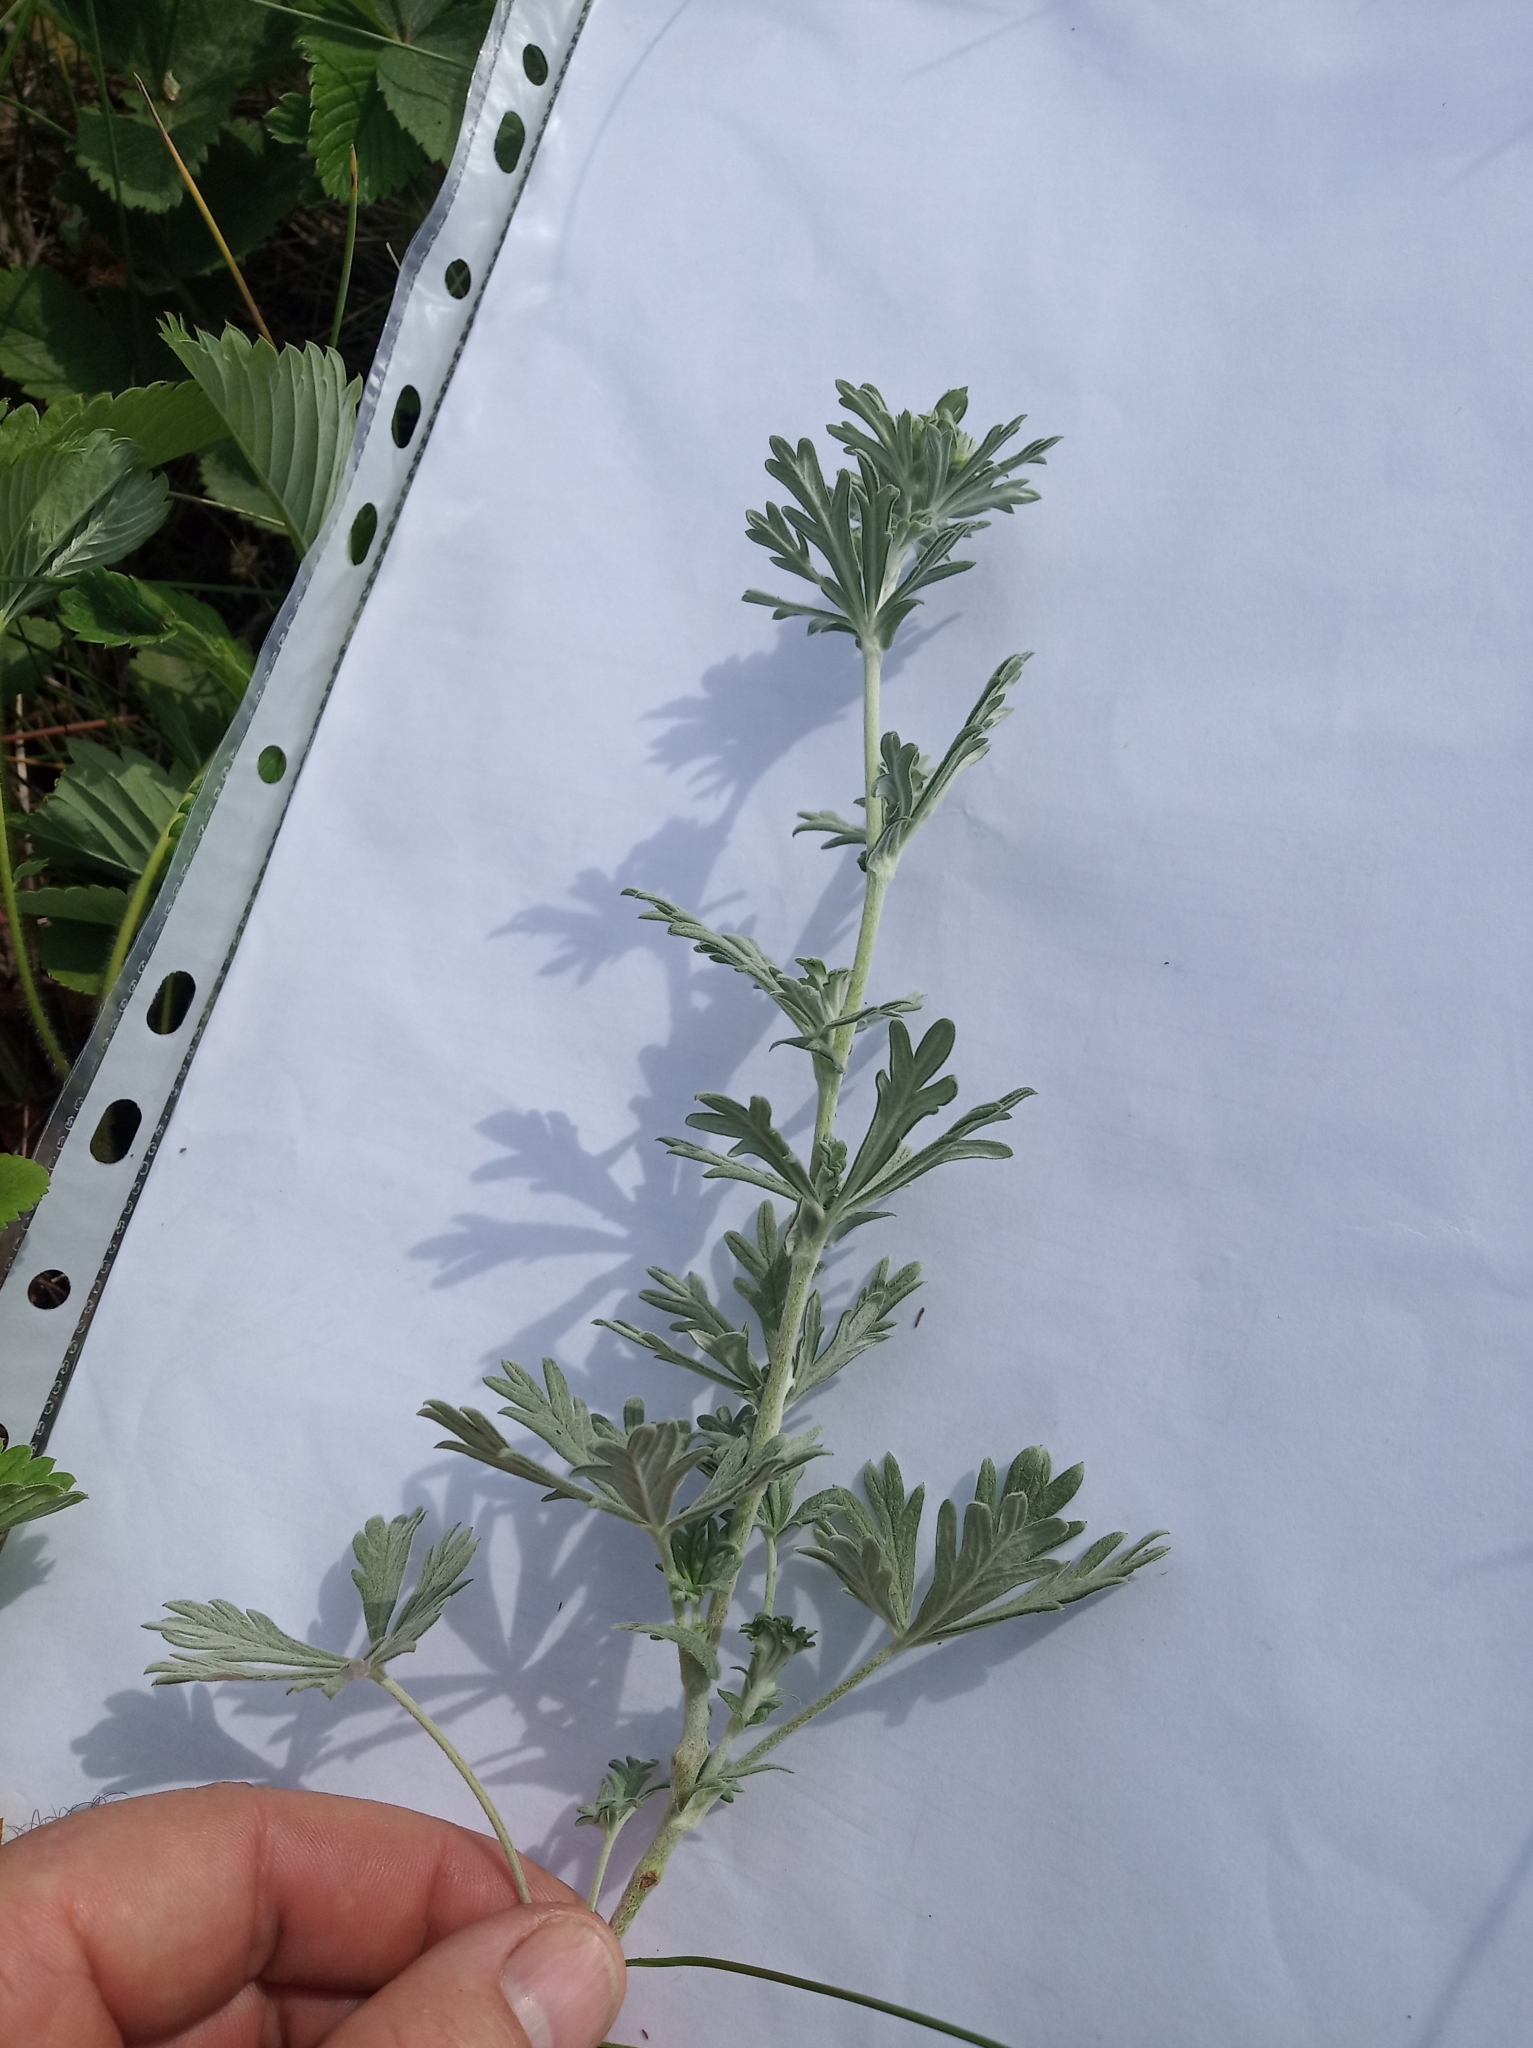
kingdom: Plantae
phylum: Tracheophyta
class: Magnoliopsida
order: Rosales
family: Rosaceae
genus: Potentilla
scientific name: Potentilla argentea
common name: Hoary cinquefoil
